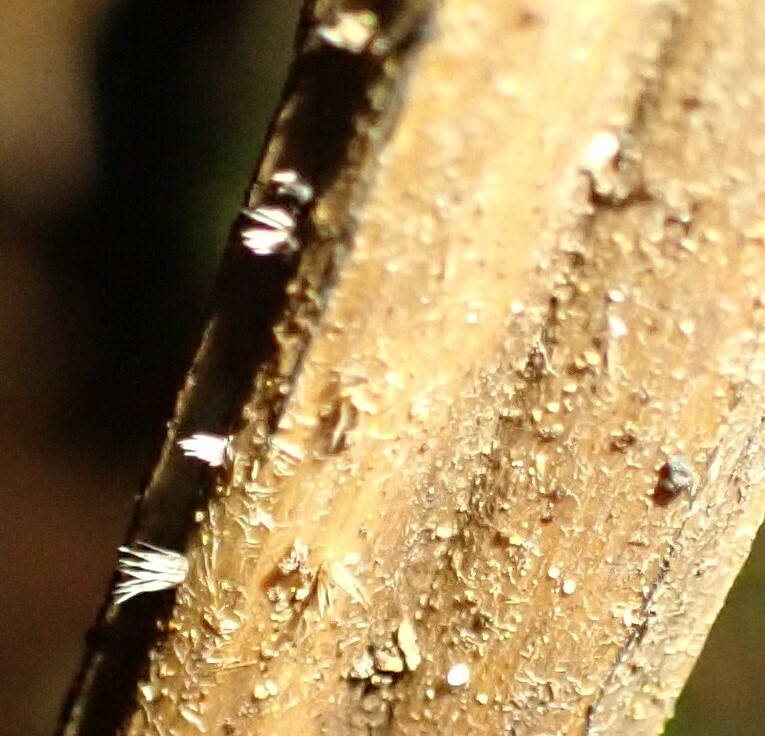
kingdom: Fungi
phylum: Ascomycota
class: Leotiomycetes
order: Helotiales
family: Helotiaceae
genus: Hispidula
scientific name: Hispidula dicksoniae
